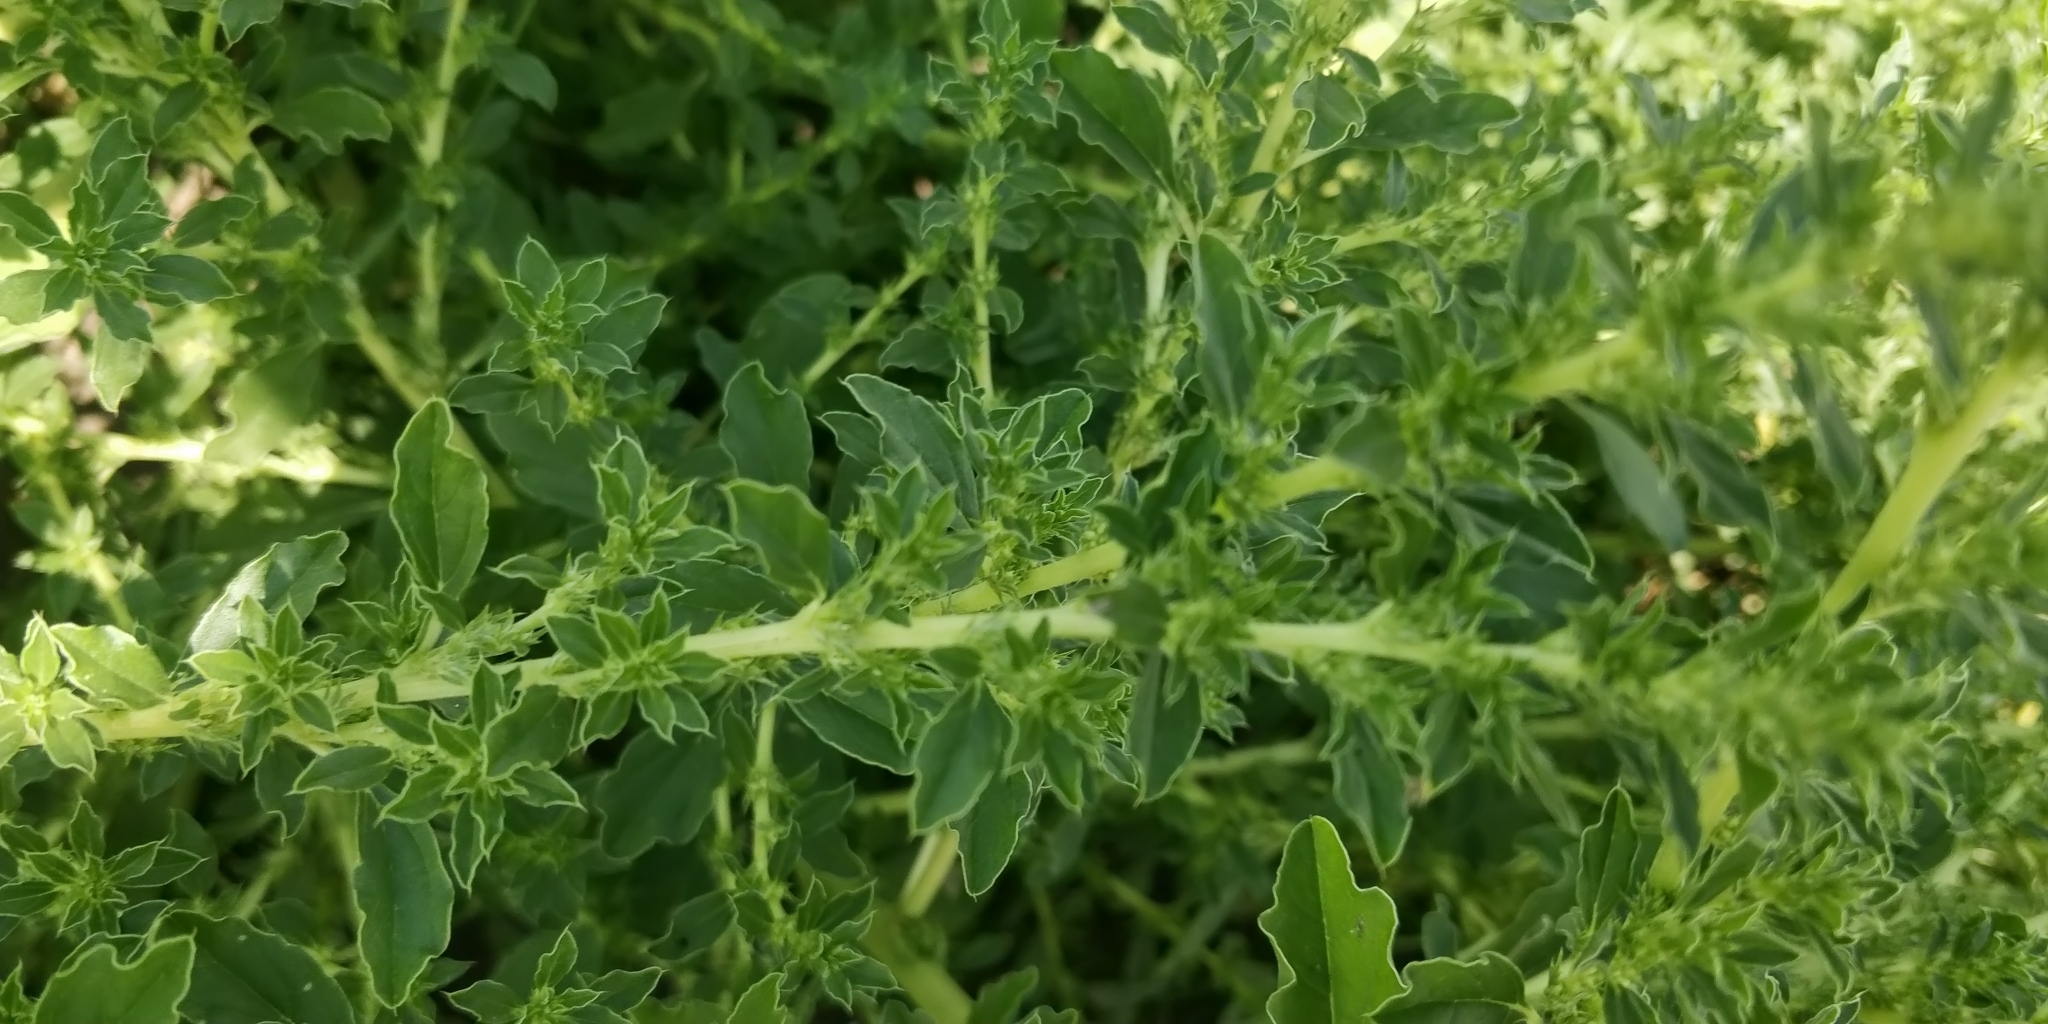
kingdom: Plantae
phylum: Tracheophyta
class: Magnoliopsida
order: Caryophyllales
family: Amaranthaceae
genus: Amaranthus
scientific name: Amaranthus albus
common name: White pigweed
